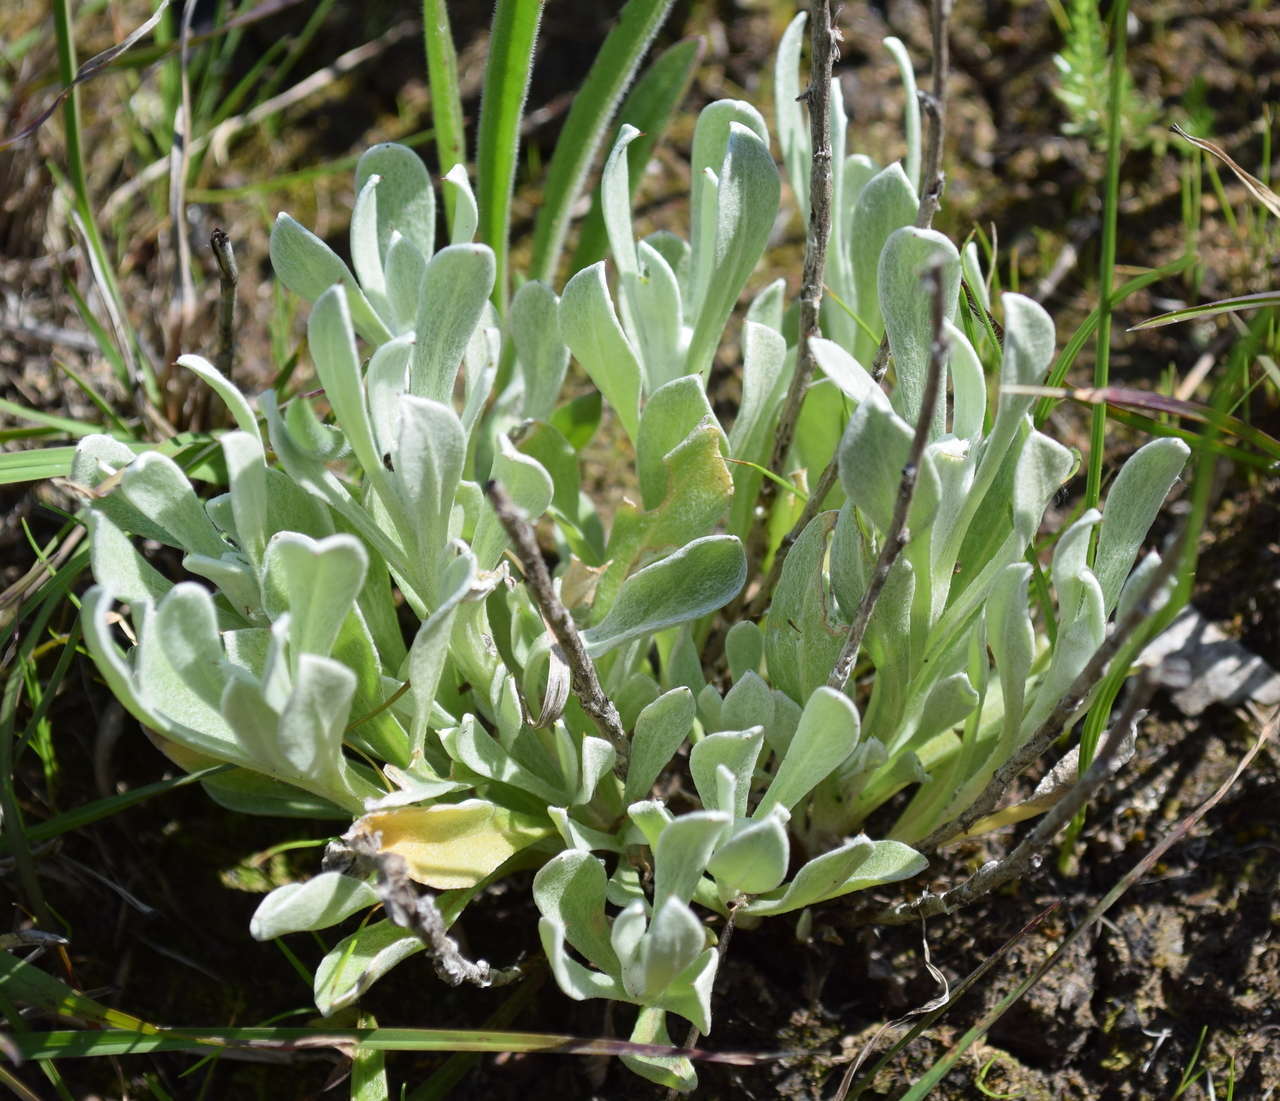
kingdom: Plantae
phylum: Tracheophyta
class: Magnoliopsida
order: Asterales
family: Asteraceae
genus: Chrysocephalum
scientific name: Chrysocephalum apiculatum
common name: Common everlasting
